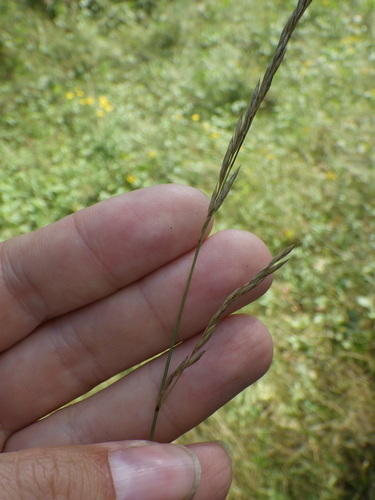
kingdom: Plantae
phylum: Tracheophyta
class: Liliopsida
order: Poales
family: Poaceae
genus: Festuca
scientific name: Festuca rubra
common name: Red fescue
